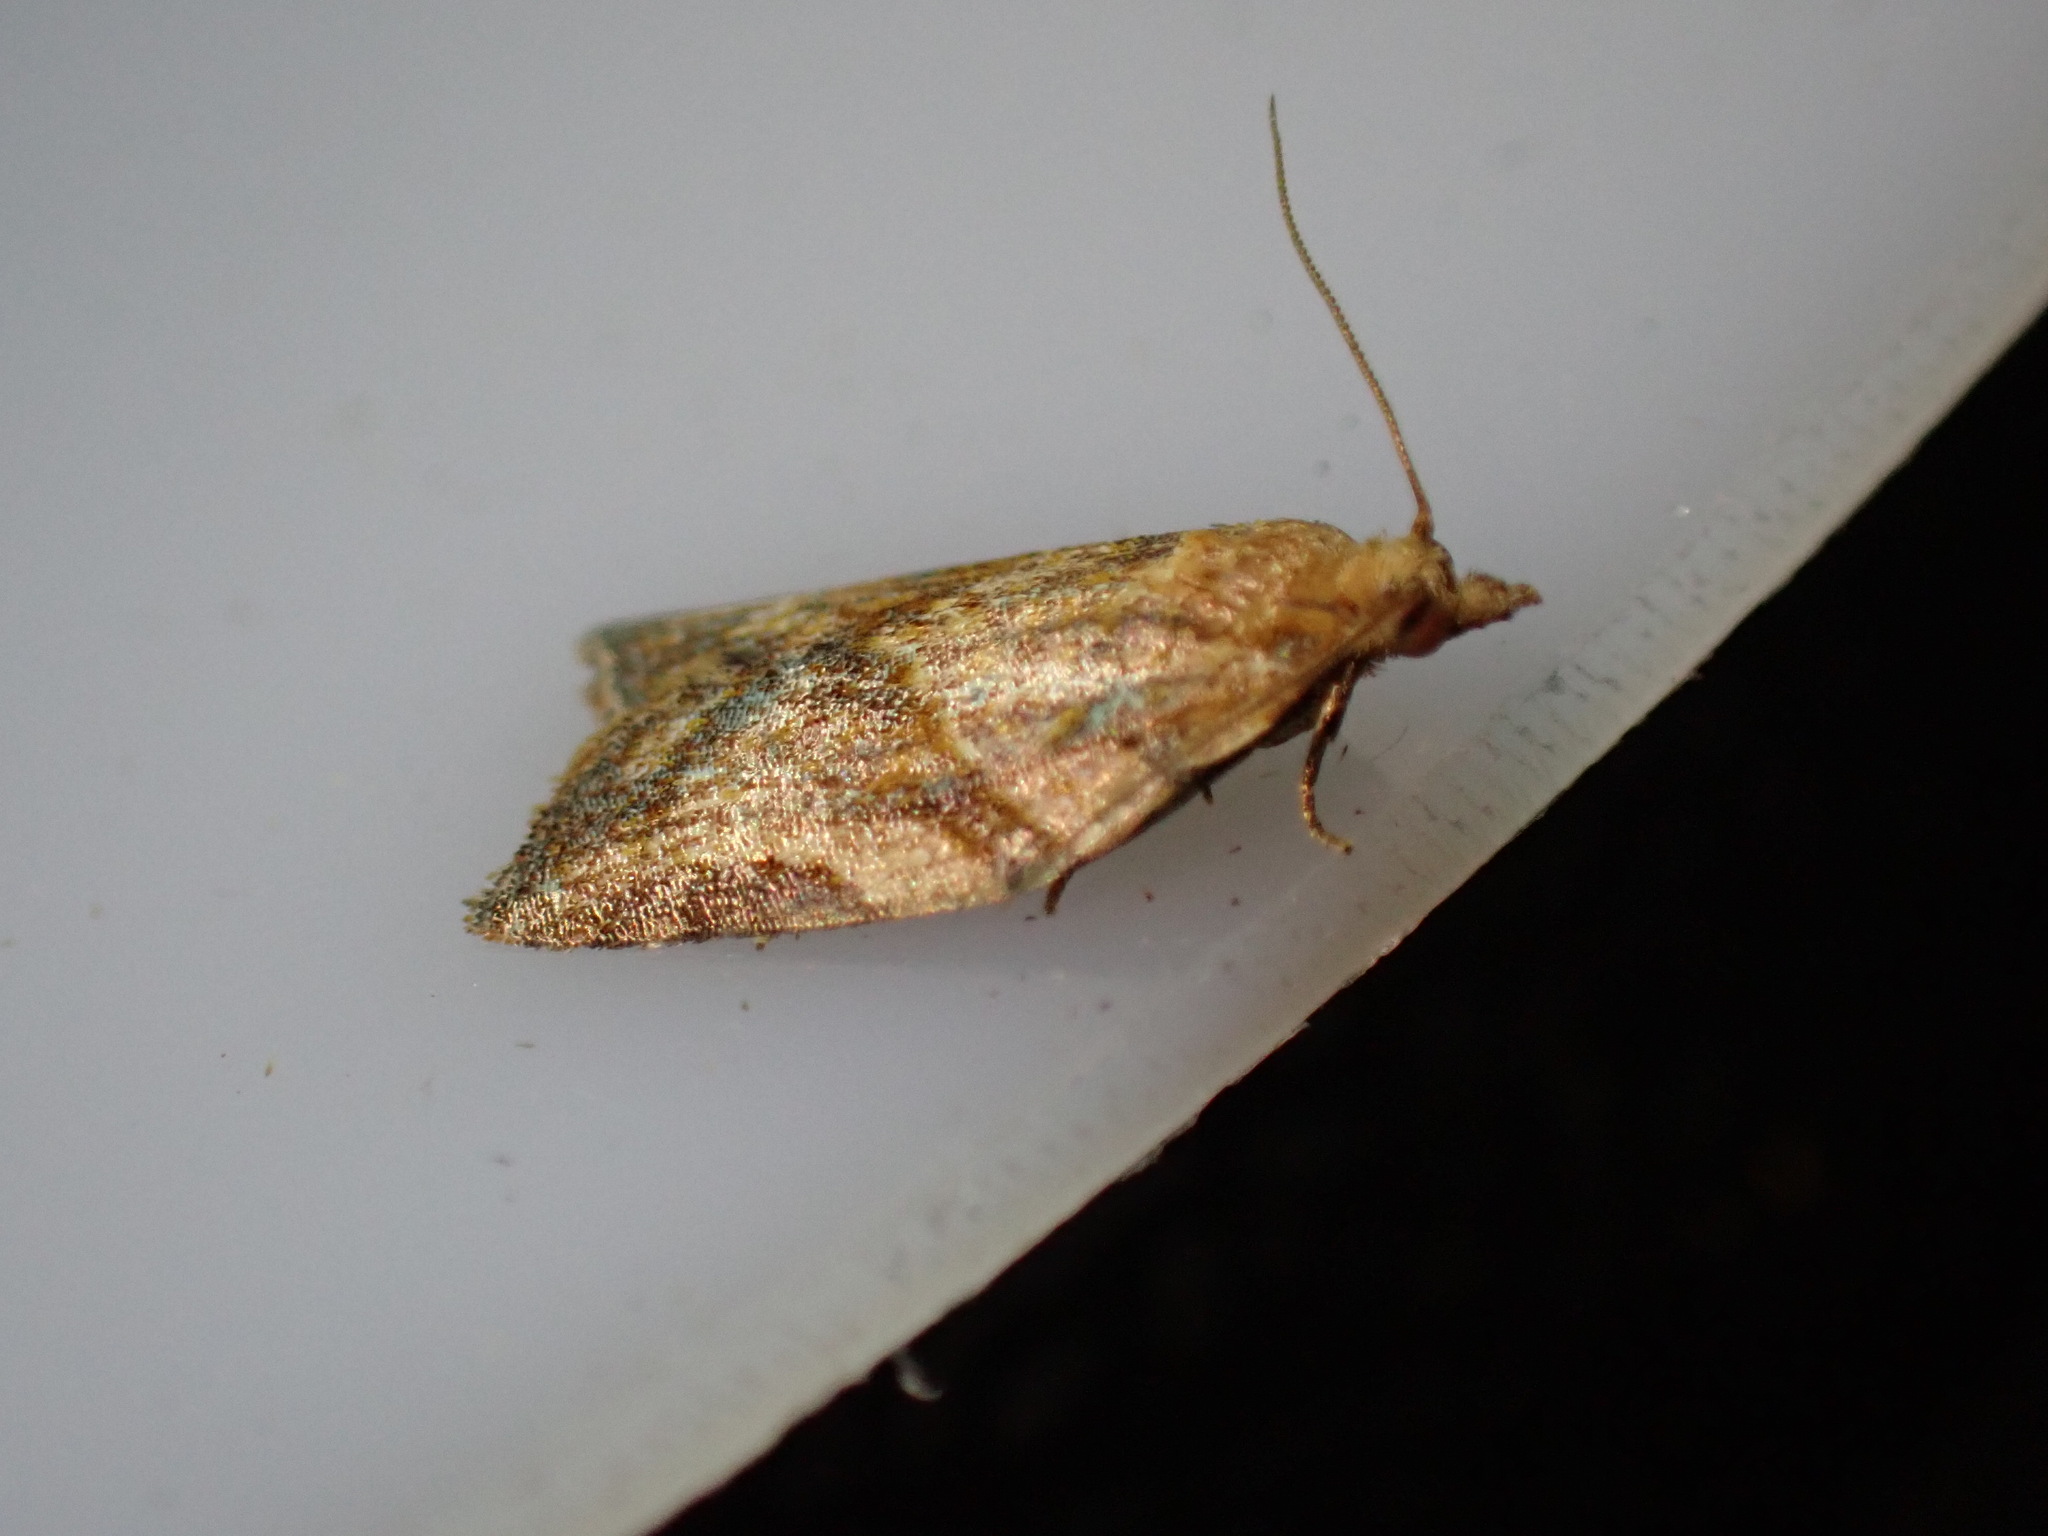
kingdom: Animalia
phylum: Arthropoda
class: Insecta
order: Lepidoptera
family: Tortricidae
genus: Epiphyas
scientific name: Epiphyas postvittana
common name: Light brown apple moth
